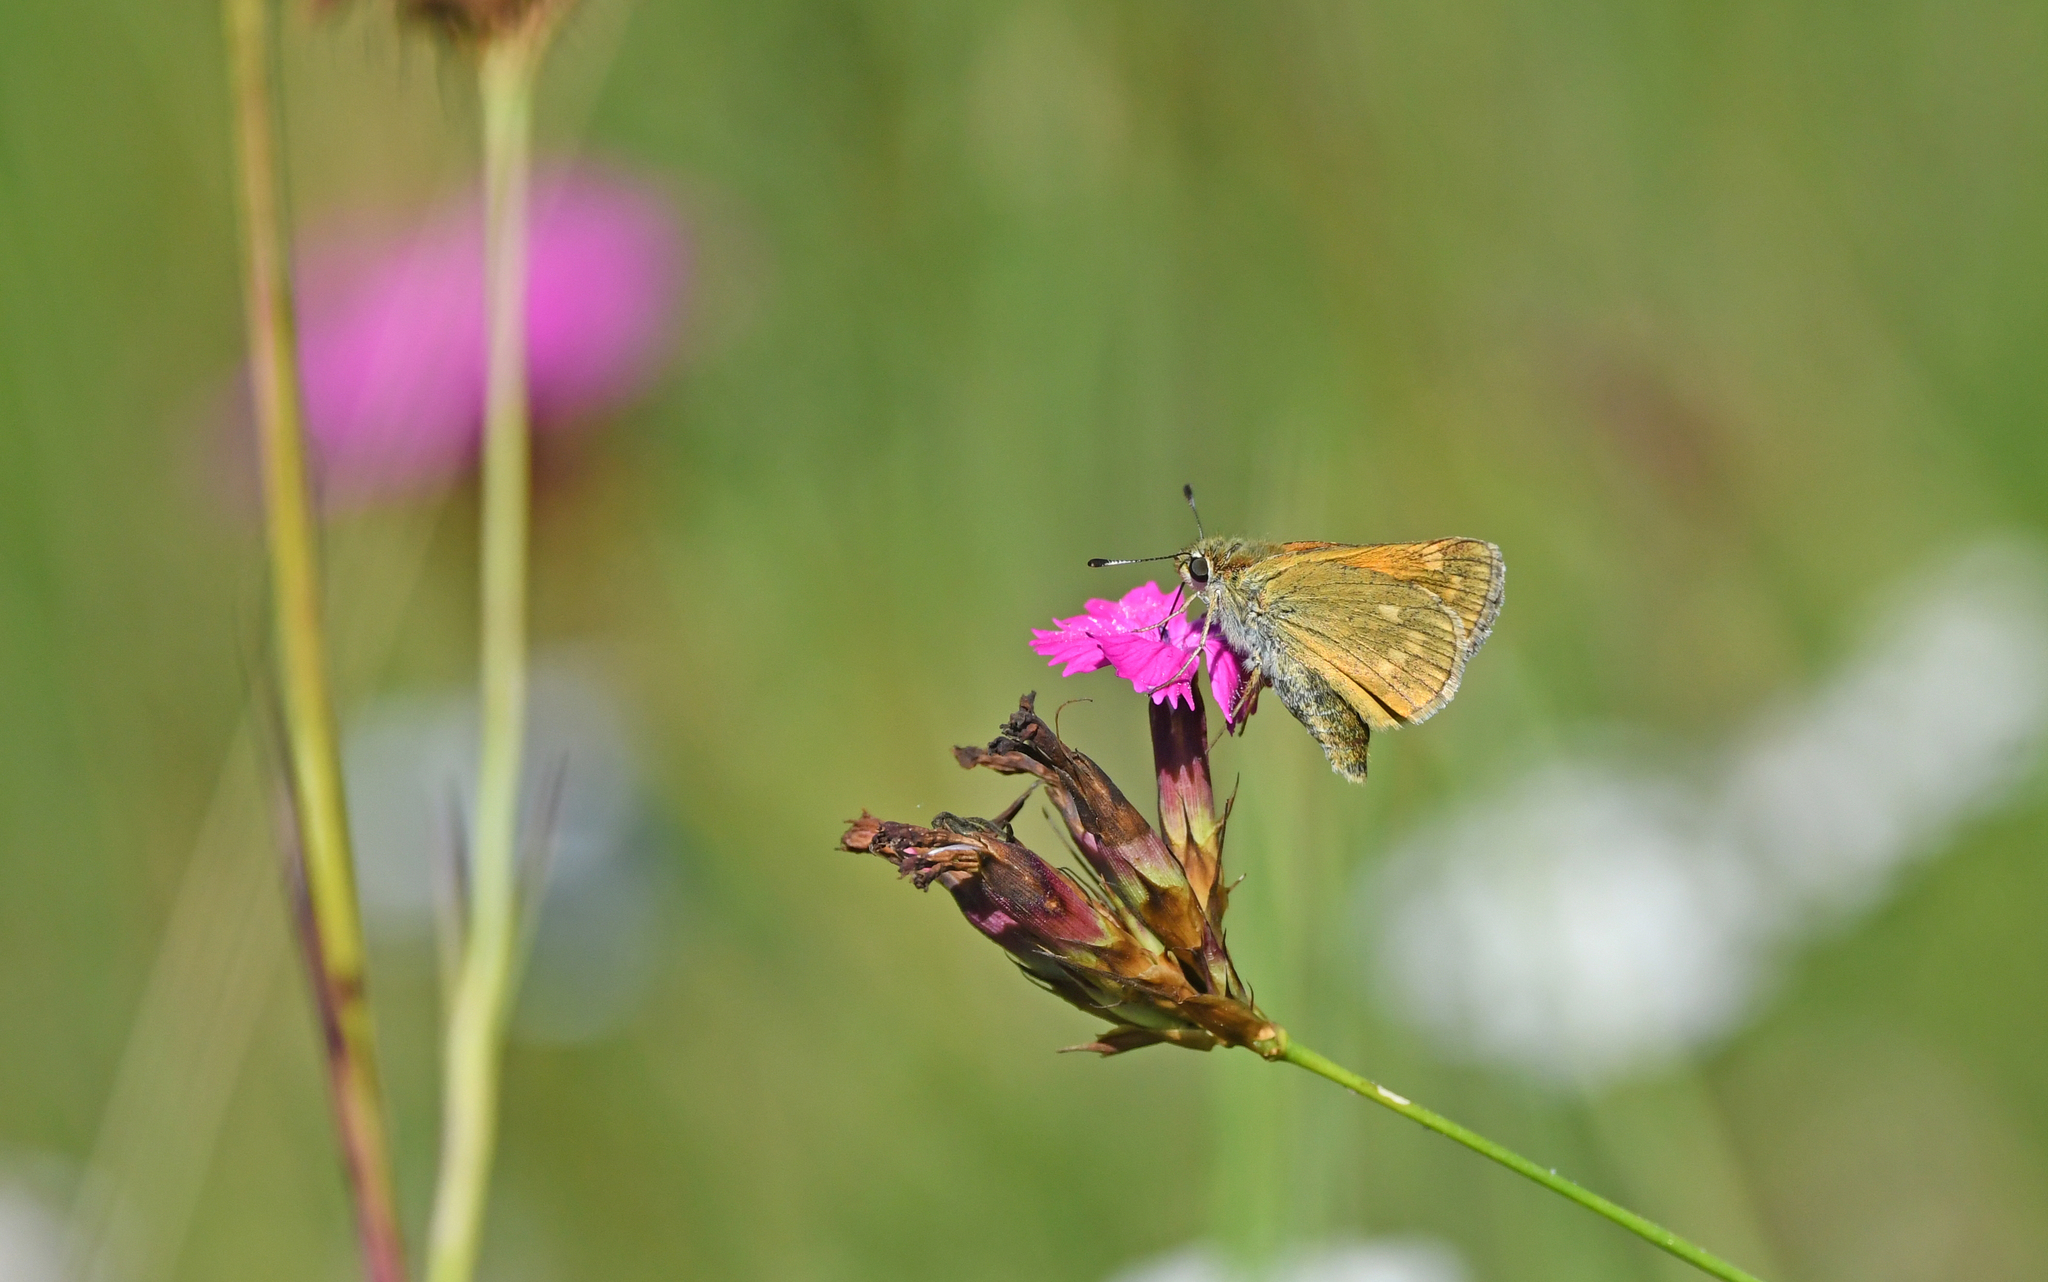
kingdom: Animalia
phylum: Arthropoda
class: Insecta
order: Lepidoptera
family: Hesperiidae
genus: Ochlodes
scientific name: Ochlodes venata
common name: Large skipper
